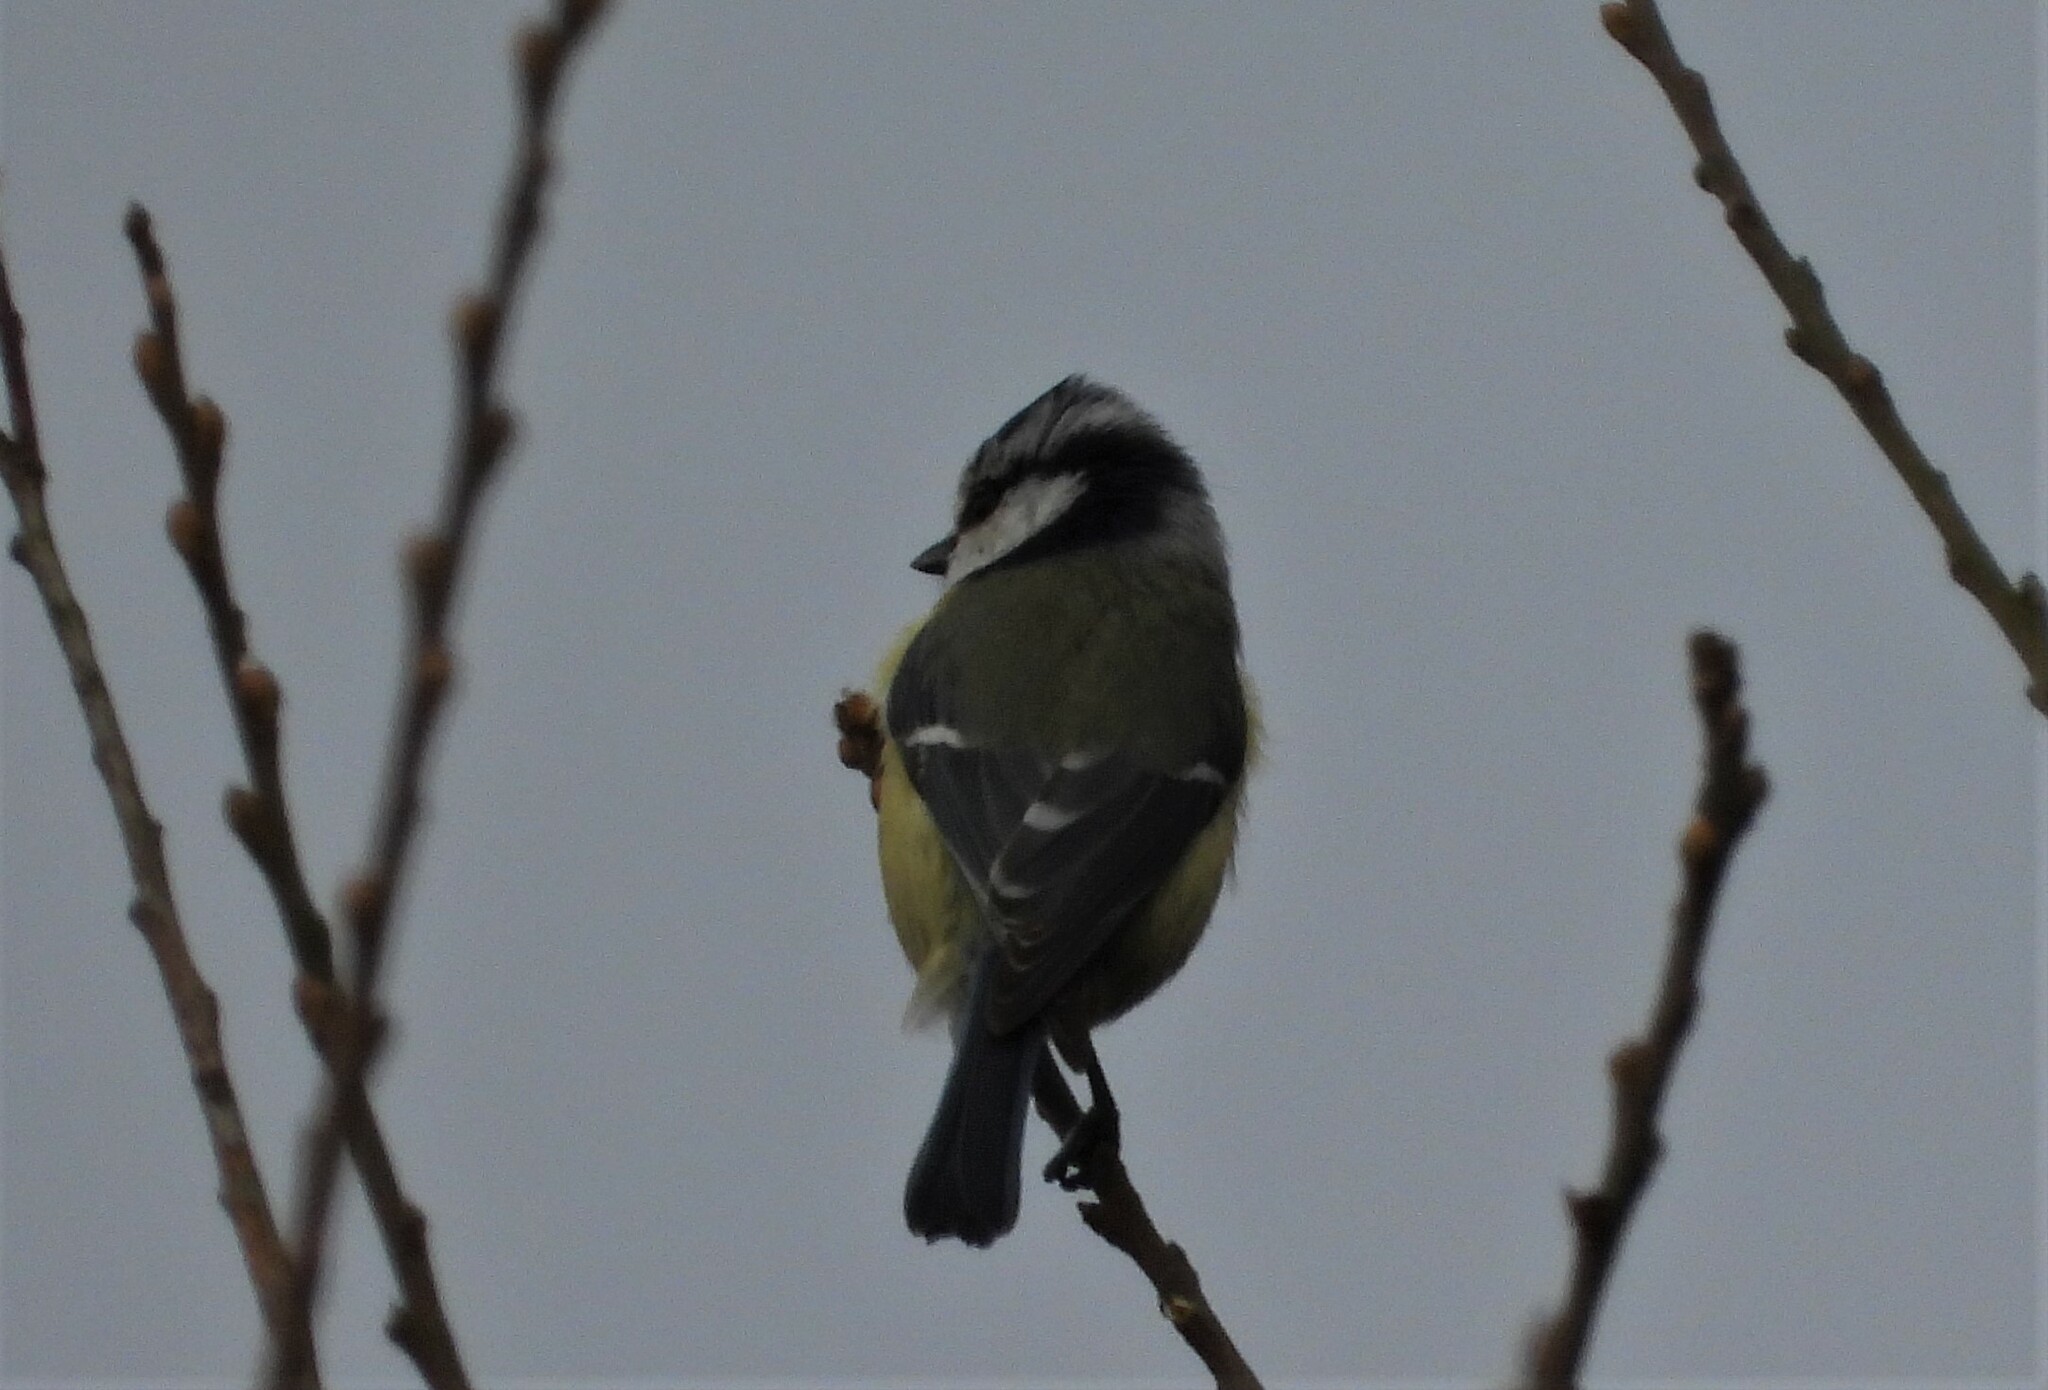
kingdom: Animalia
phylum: Chordata
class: Aves
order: Passeriformes
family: Paridae
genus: Cyanistes
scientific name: Cyanistes caeruleus
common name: Eurasian blue tit
